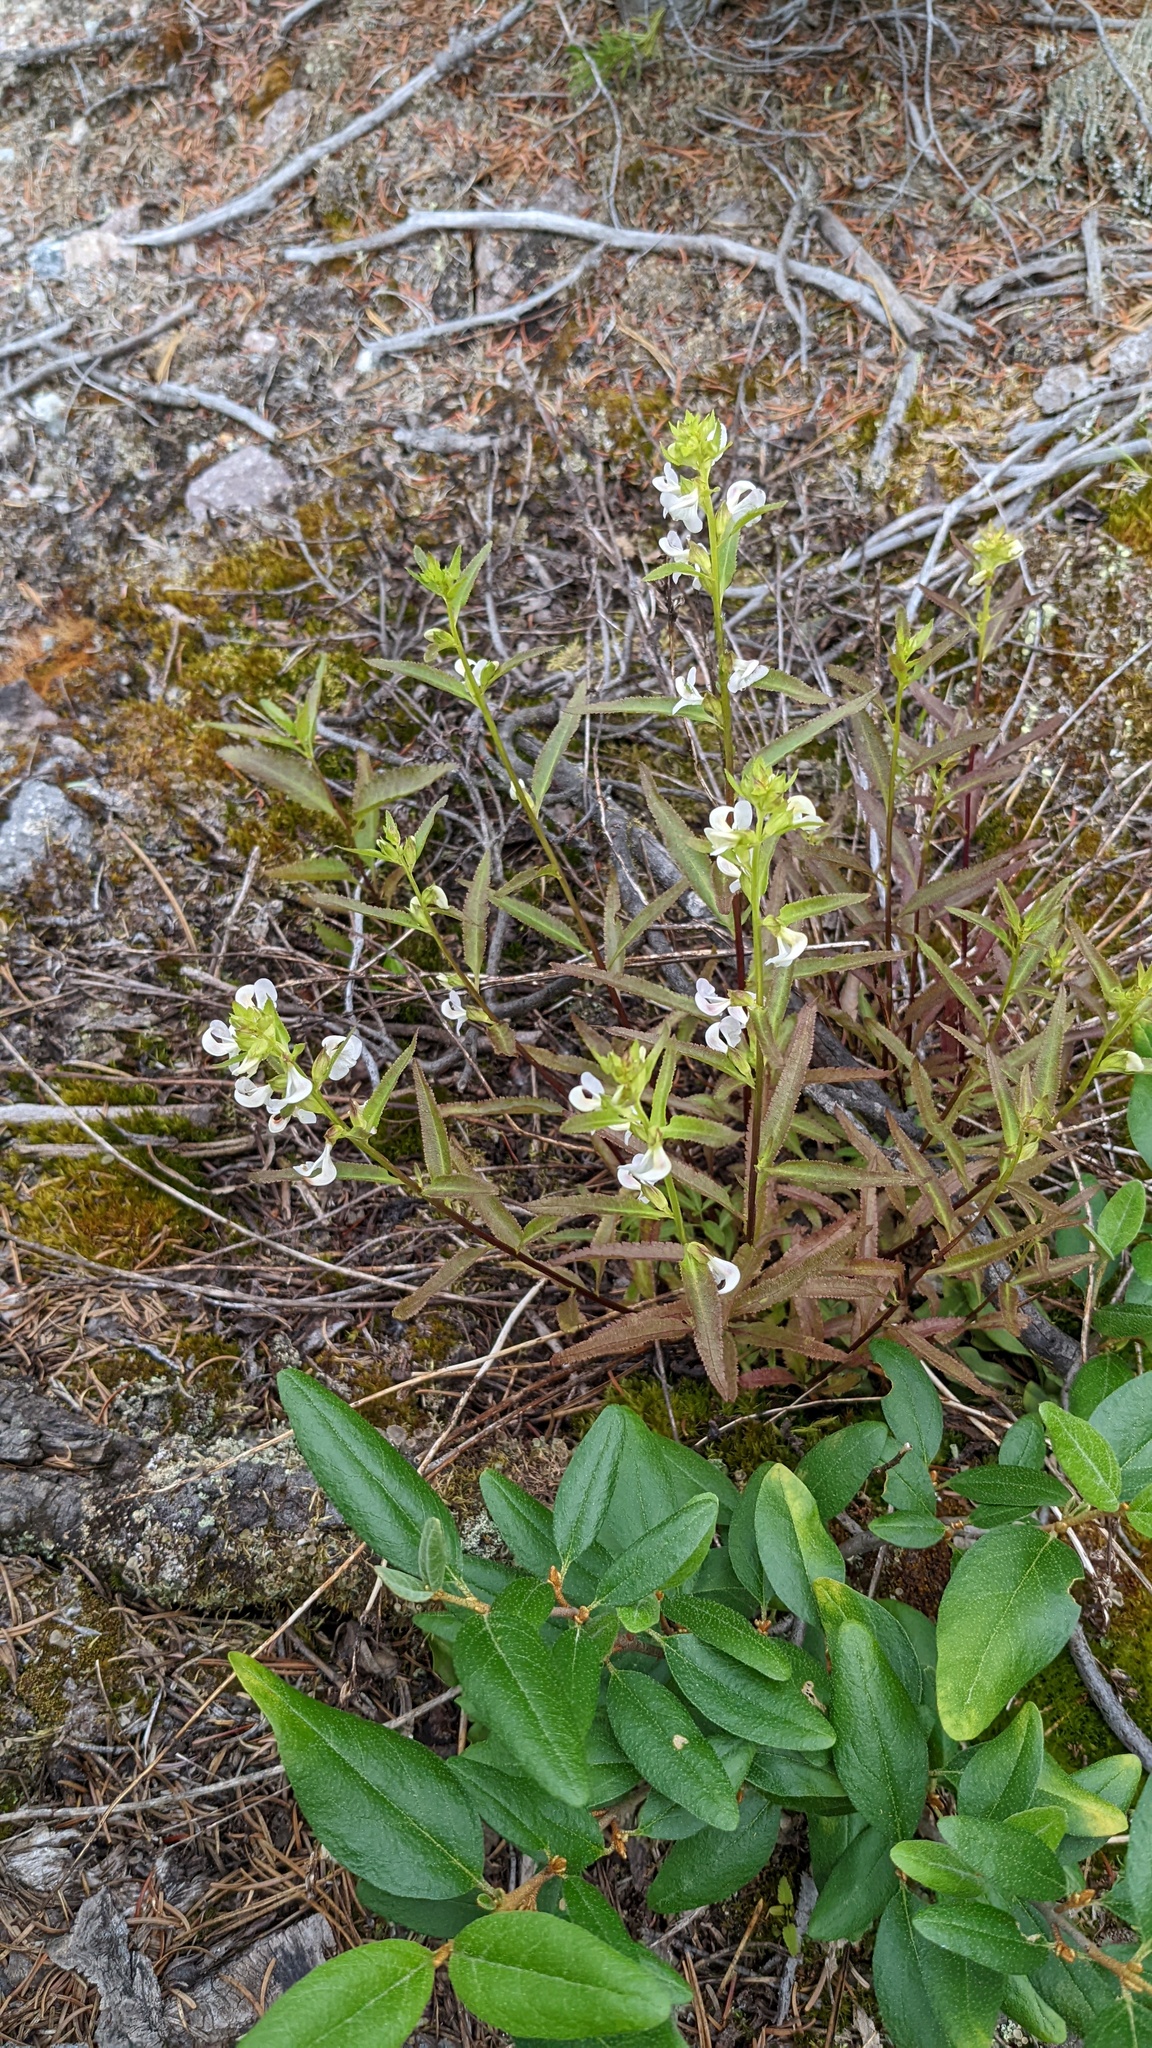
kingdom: Plantae
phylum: Tracheophyta
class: Magnoliopsida
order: Lamiales
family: Orobanchaceae
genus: Pedicularis
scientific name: Pedicularis racemosa
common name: Leafy lousewort
